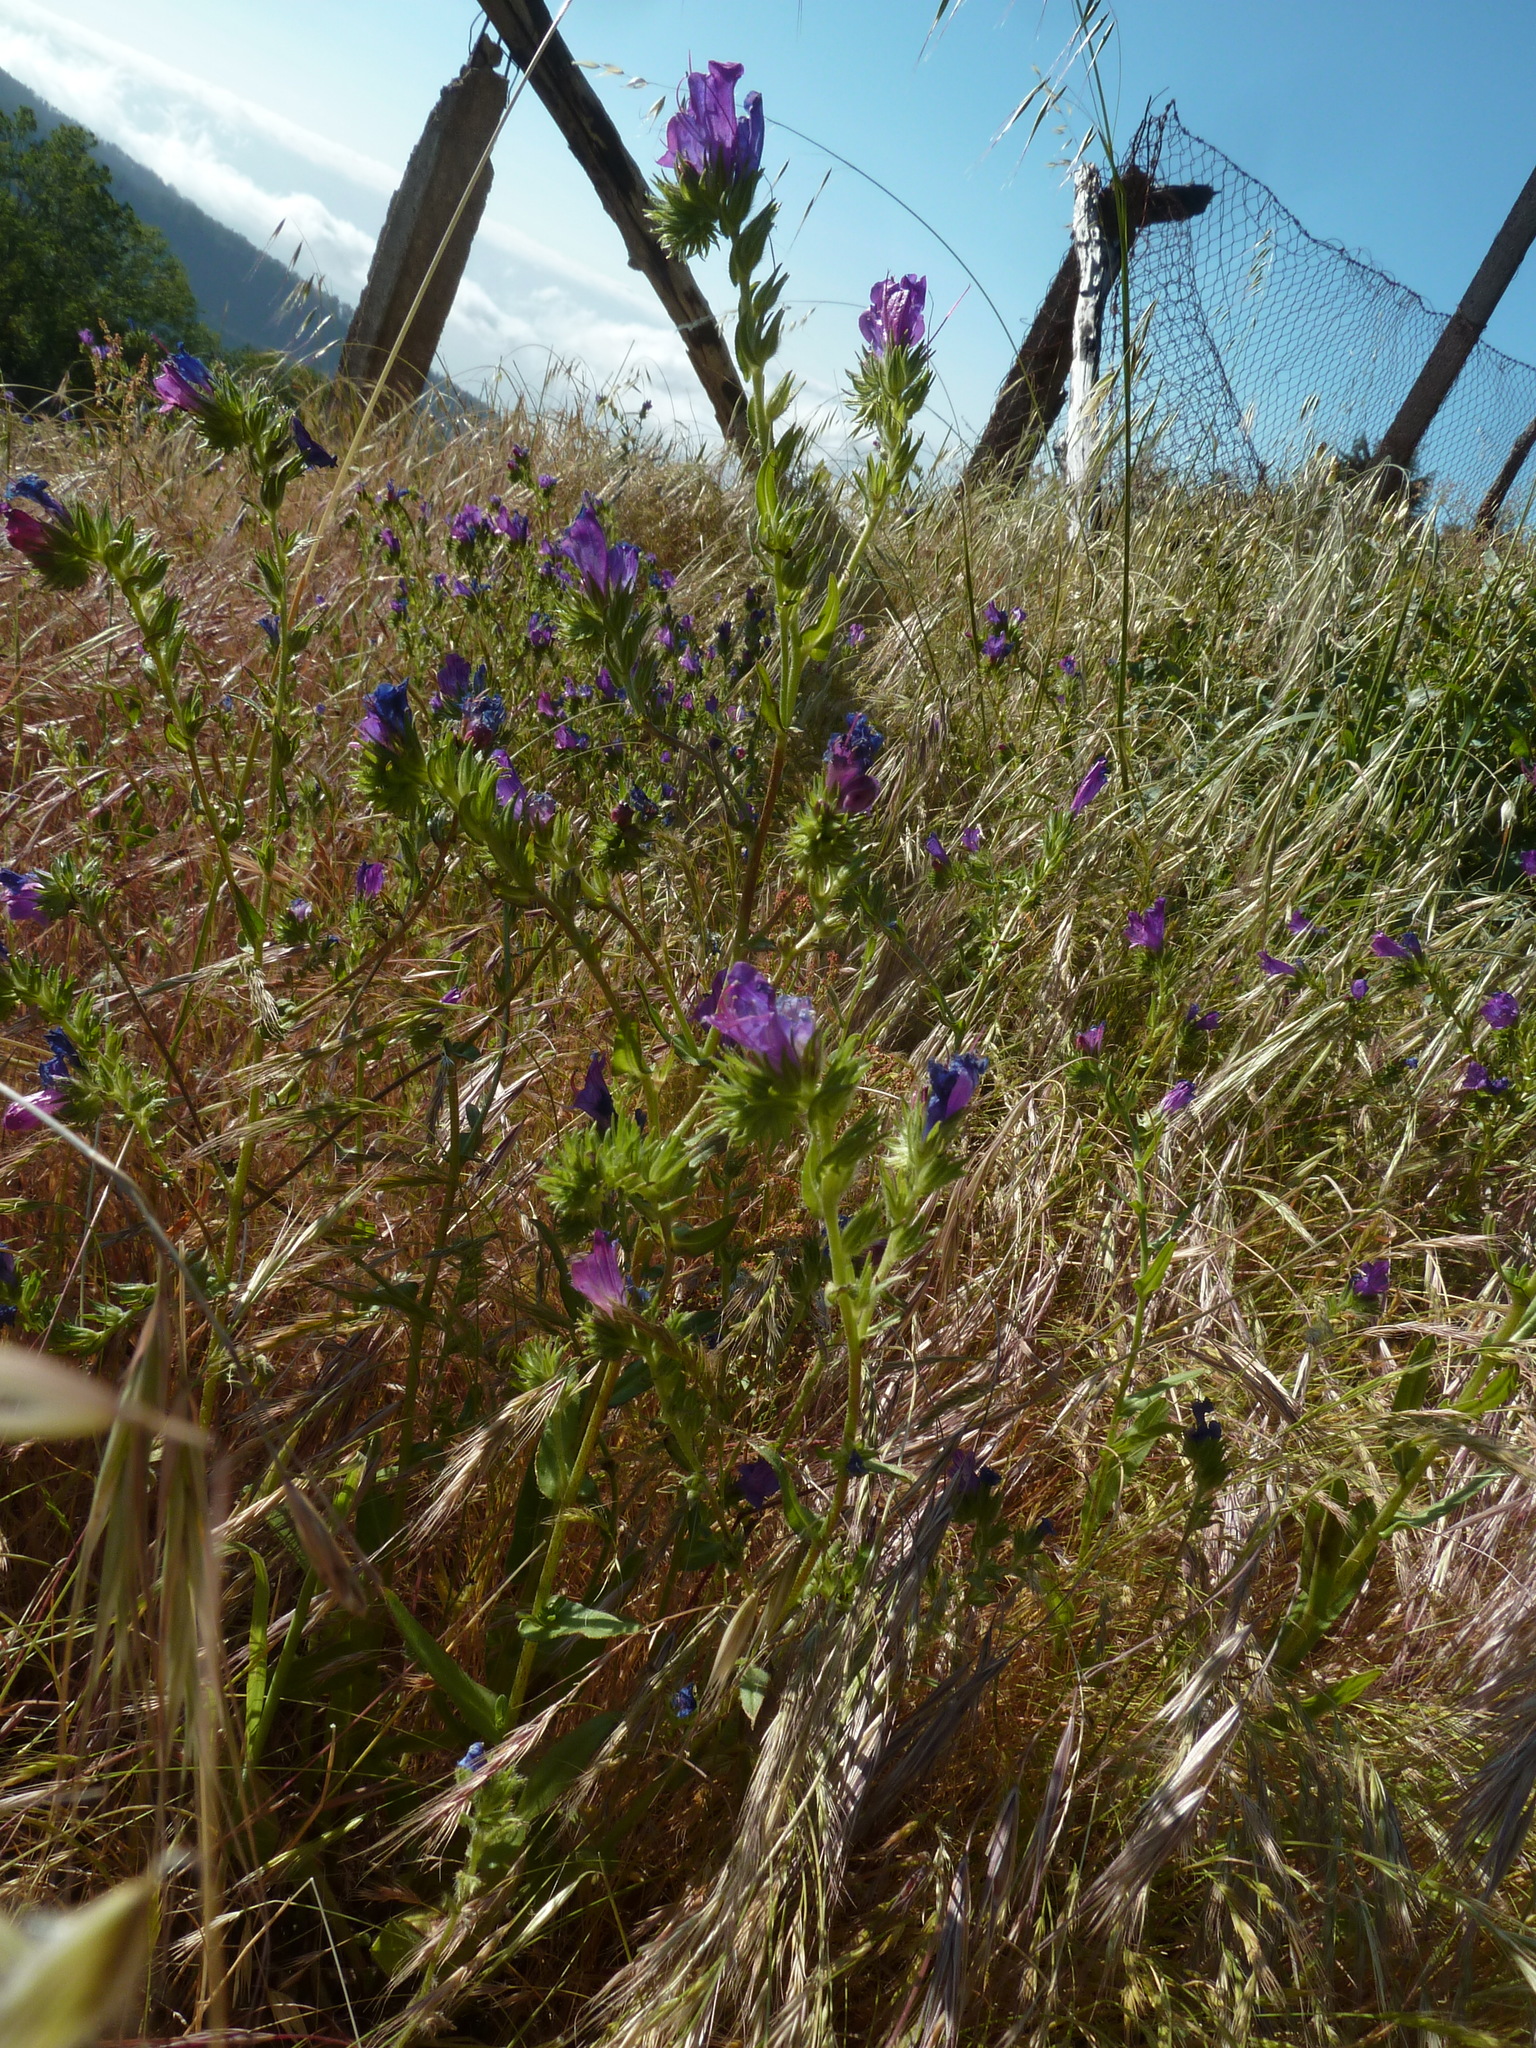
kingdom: Plantae
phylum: Tracheophyta
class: Magnoliopsida
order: Boraginales
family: Boraginaceae
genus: Echium
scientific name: Echium plantagineum
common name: Purple viper's-bugloss
